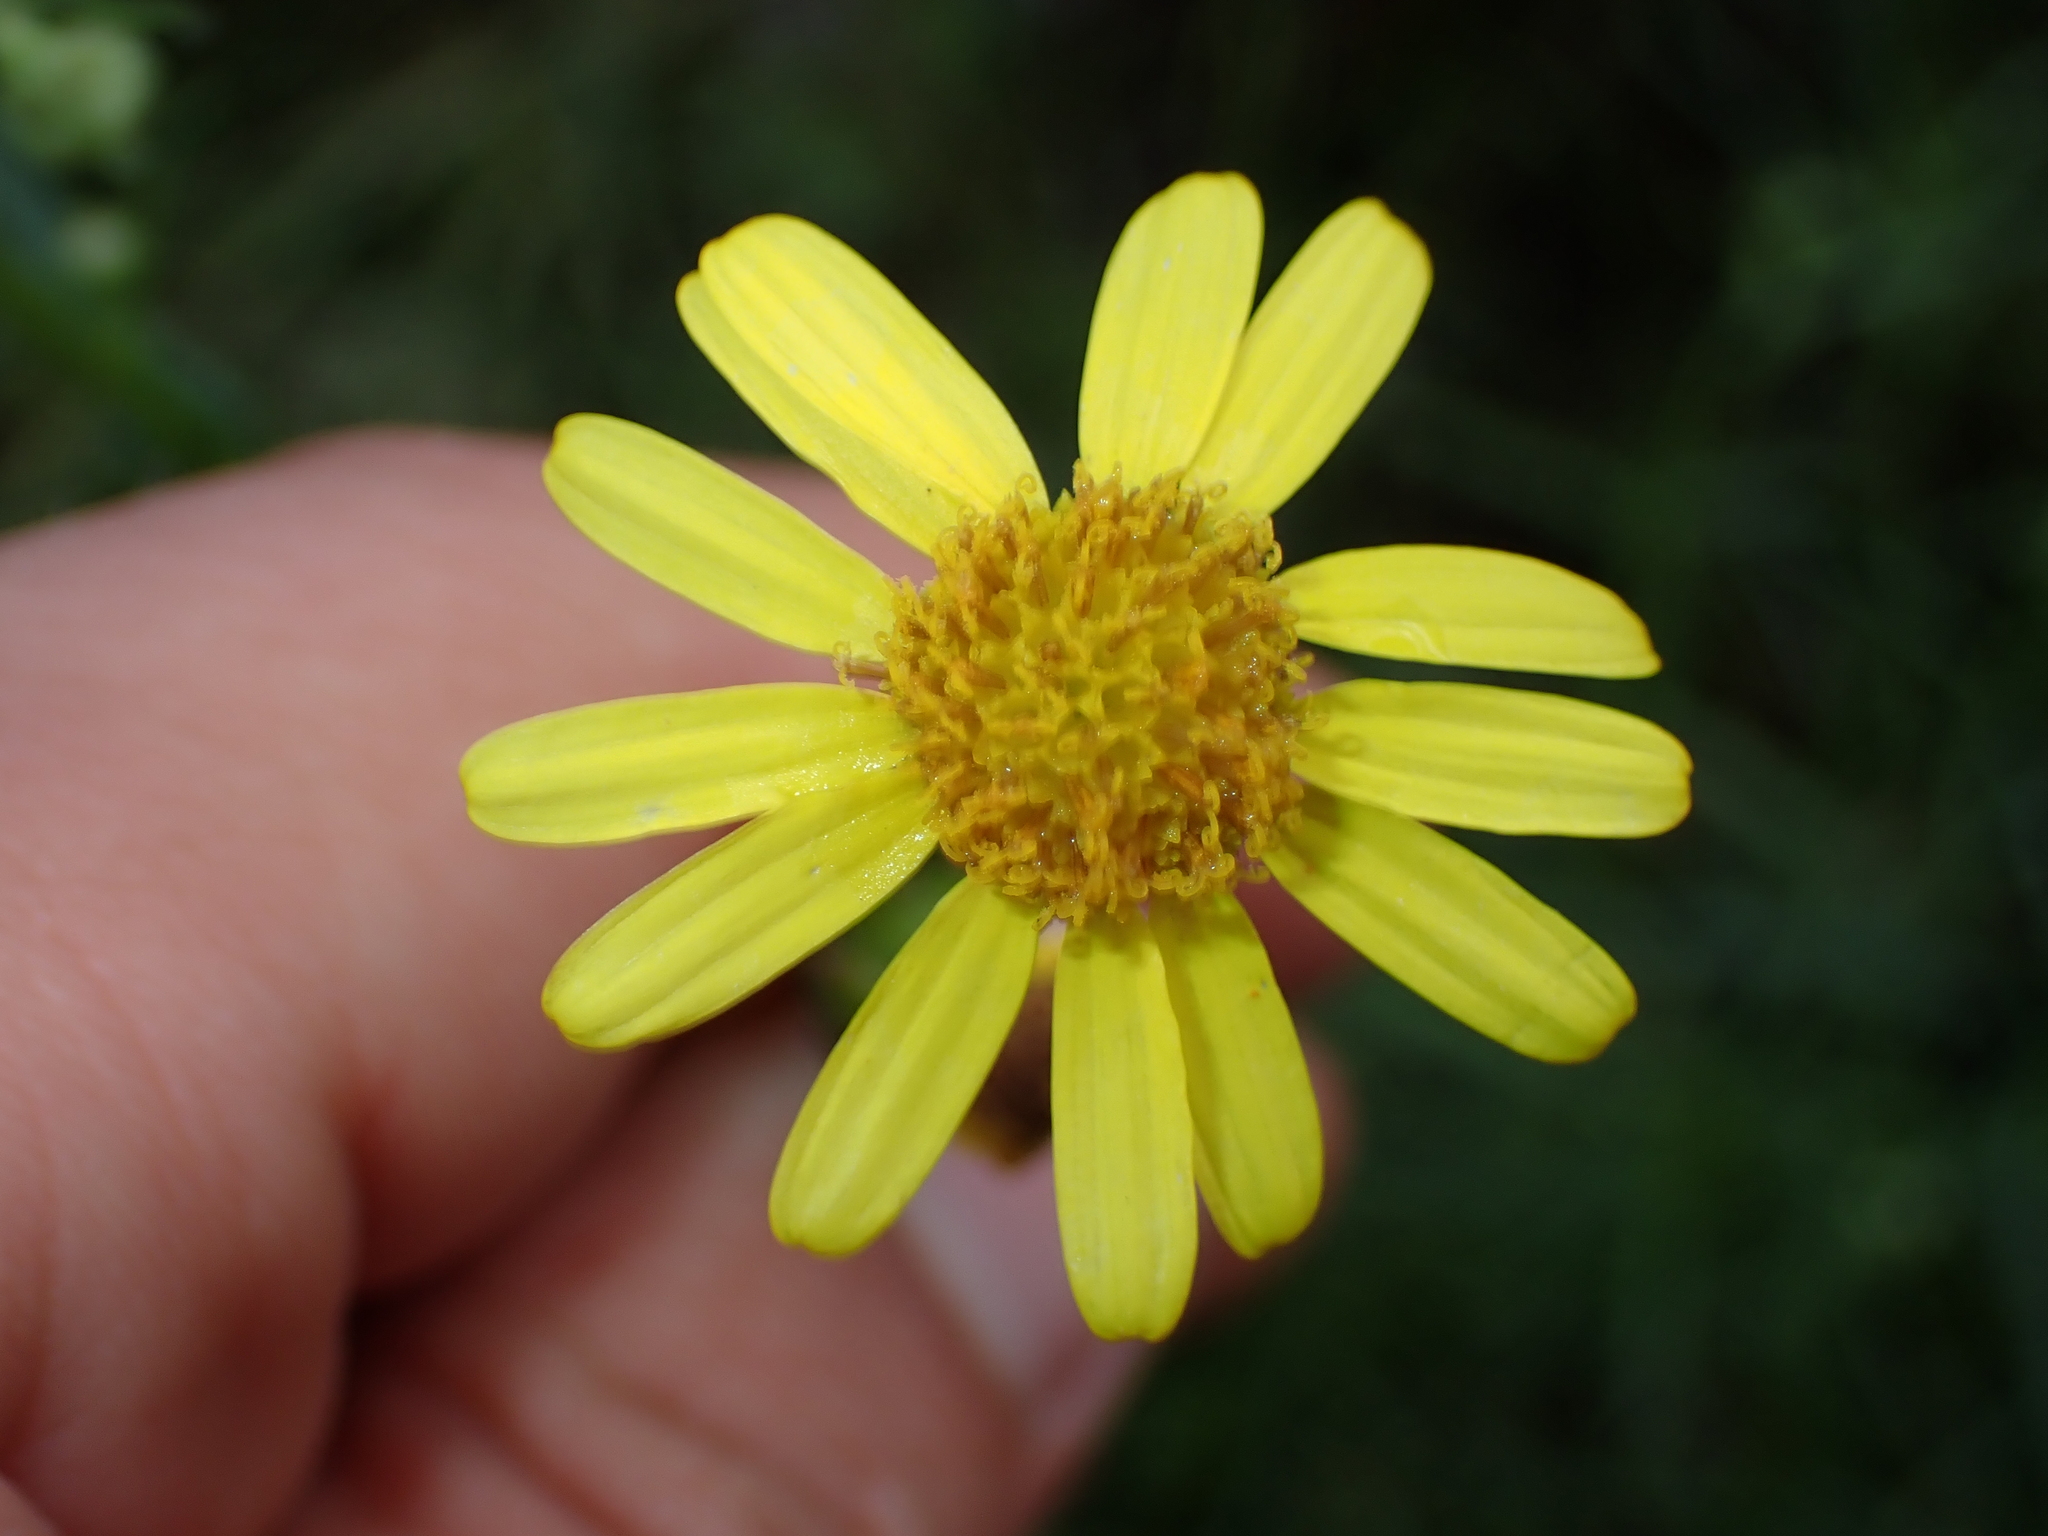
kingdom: Plantae
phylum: Tracheophyta
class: Magnoliopsida
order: Asterales
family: Asteraceae
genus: Senecio
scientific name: Senecio inaequidens
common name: Narrow-leaved ragwort
